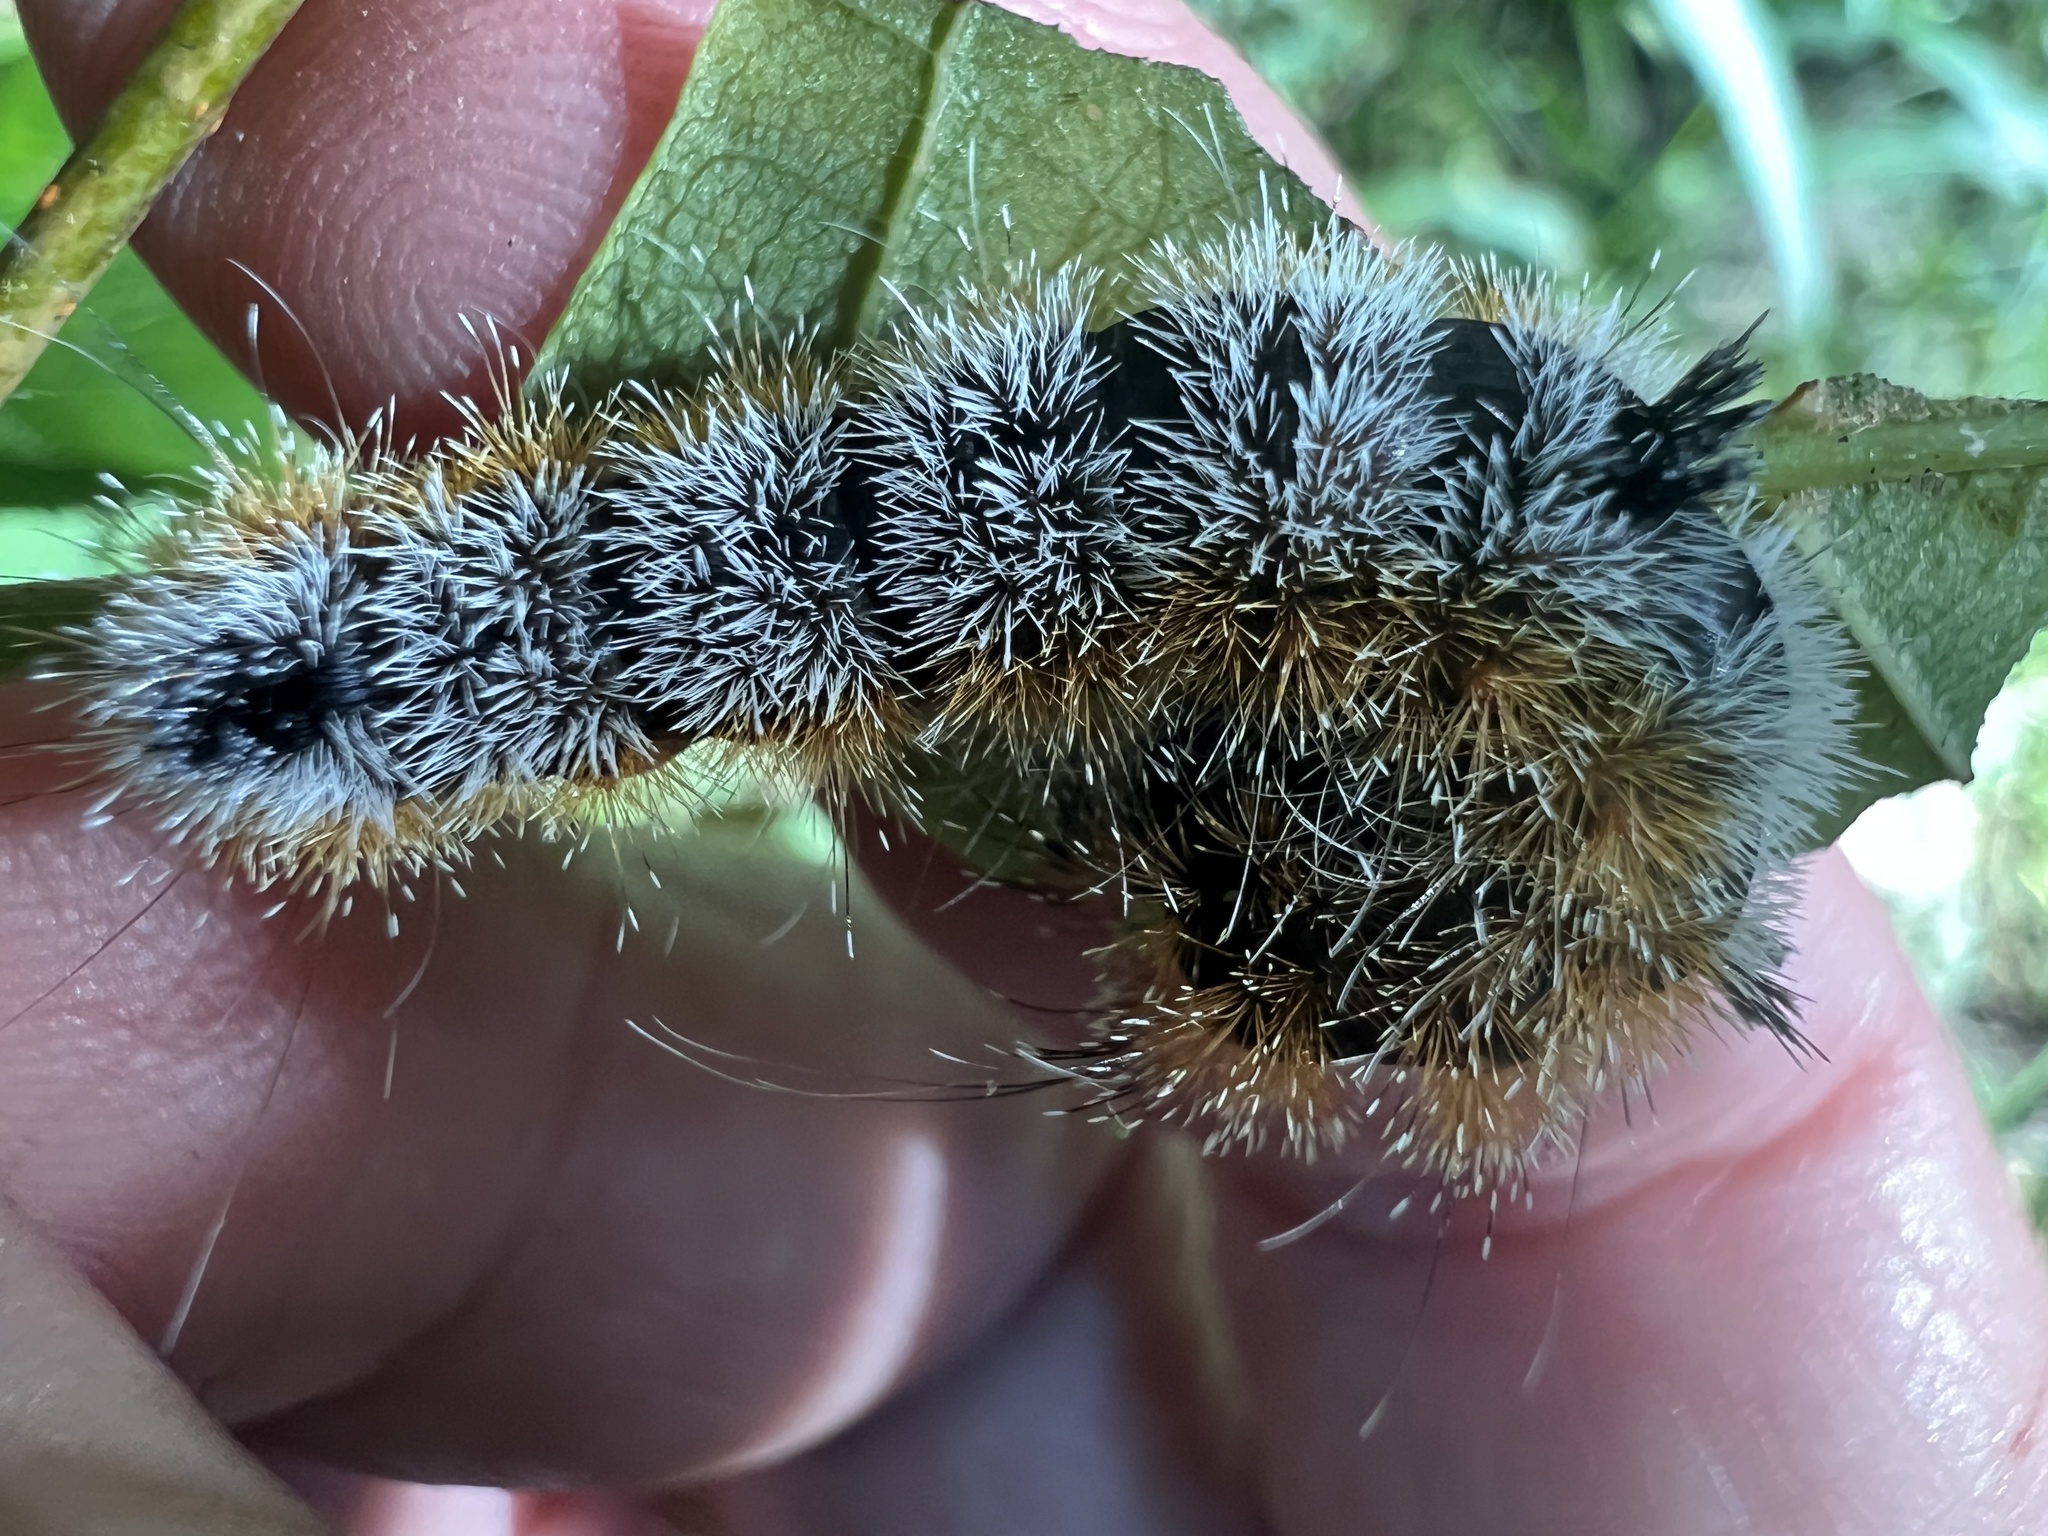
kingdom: Animalia
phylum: Arthropoda
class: Insecta
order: Lepidoptera
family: Noctuidae
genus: Acronicta
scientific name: Acronicta hastulifera
